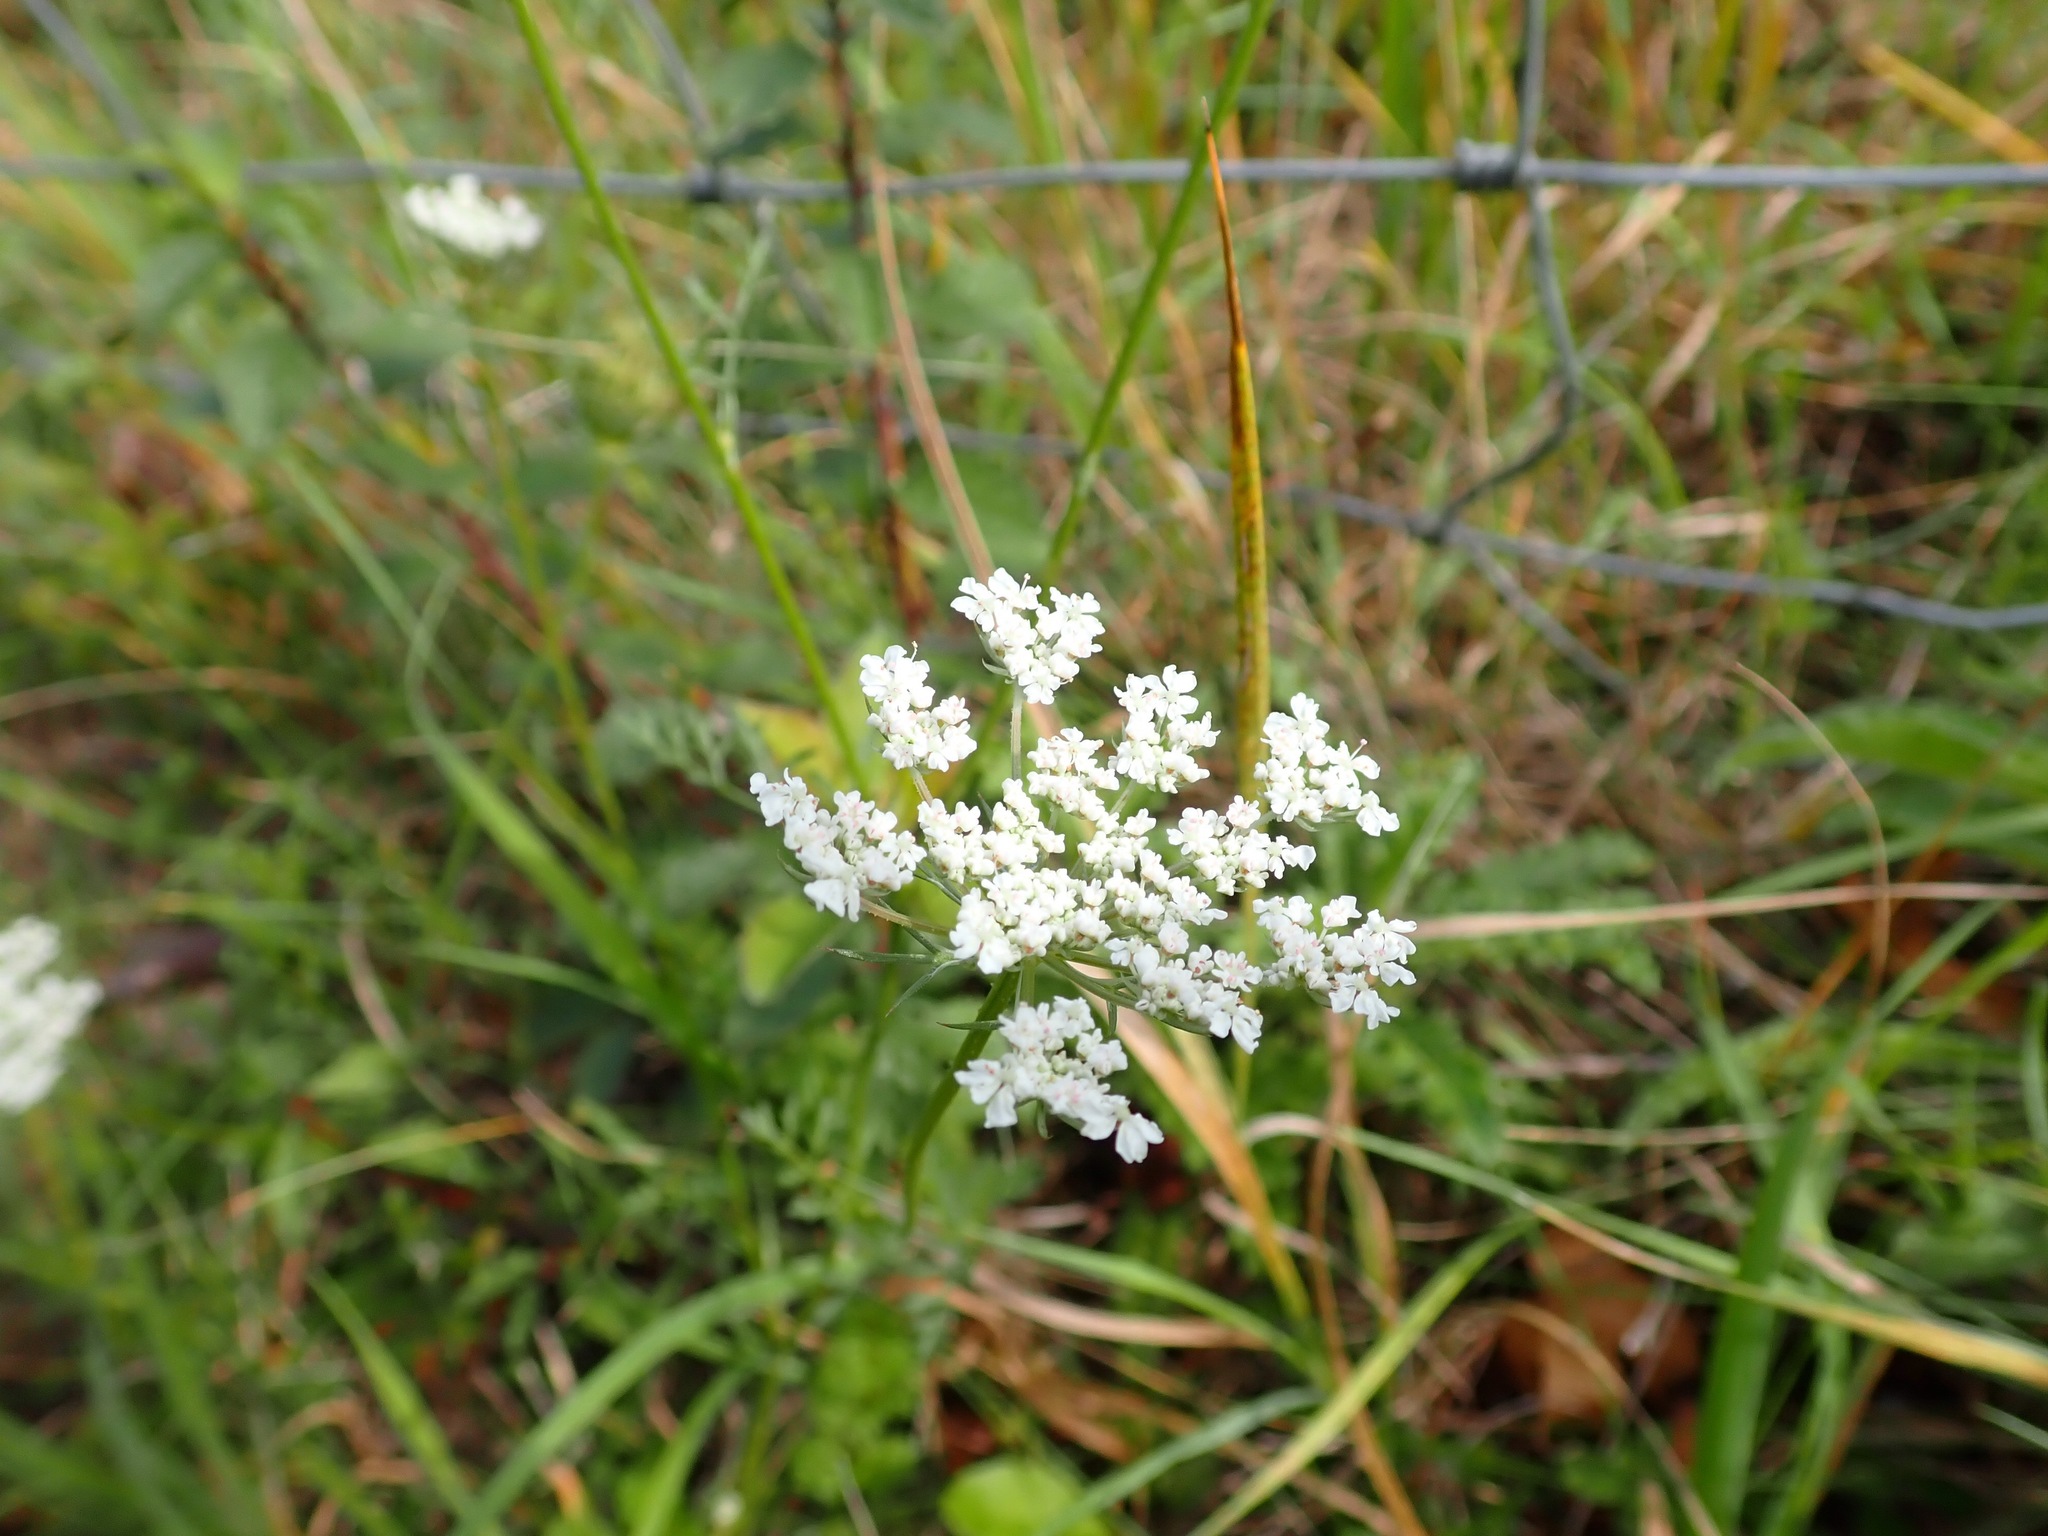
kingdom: Plantae
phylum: Tracheophyta
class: Magnoliopsida
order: Apiales
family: Apiaceae
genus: Daucus
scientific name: Daucus carota
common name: Wild carrot
